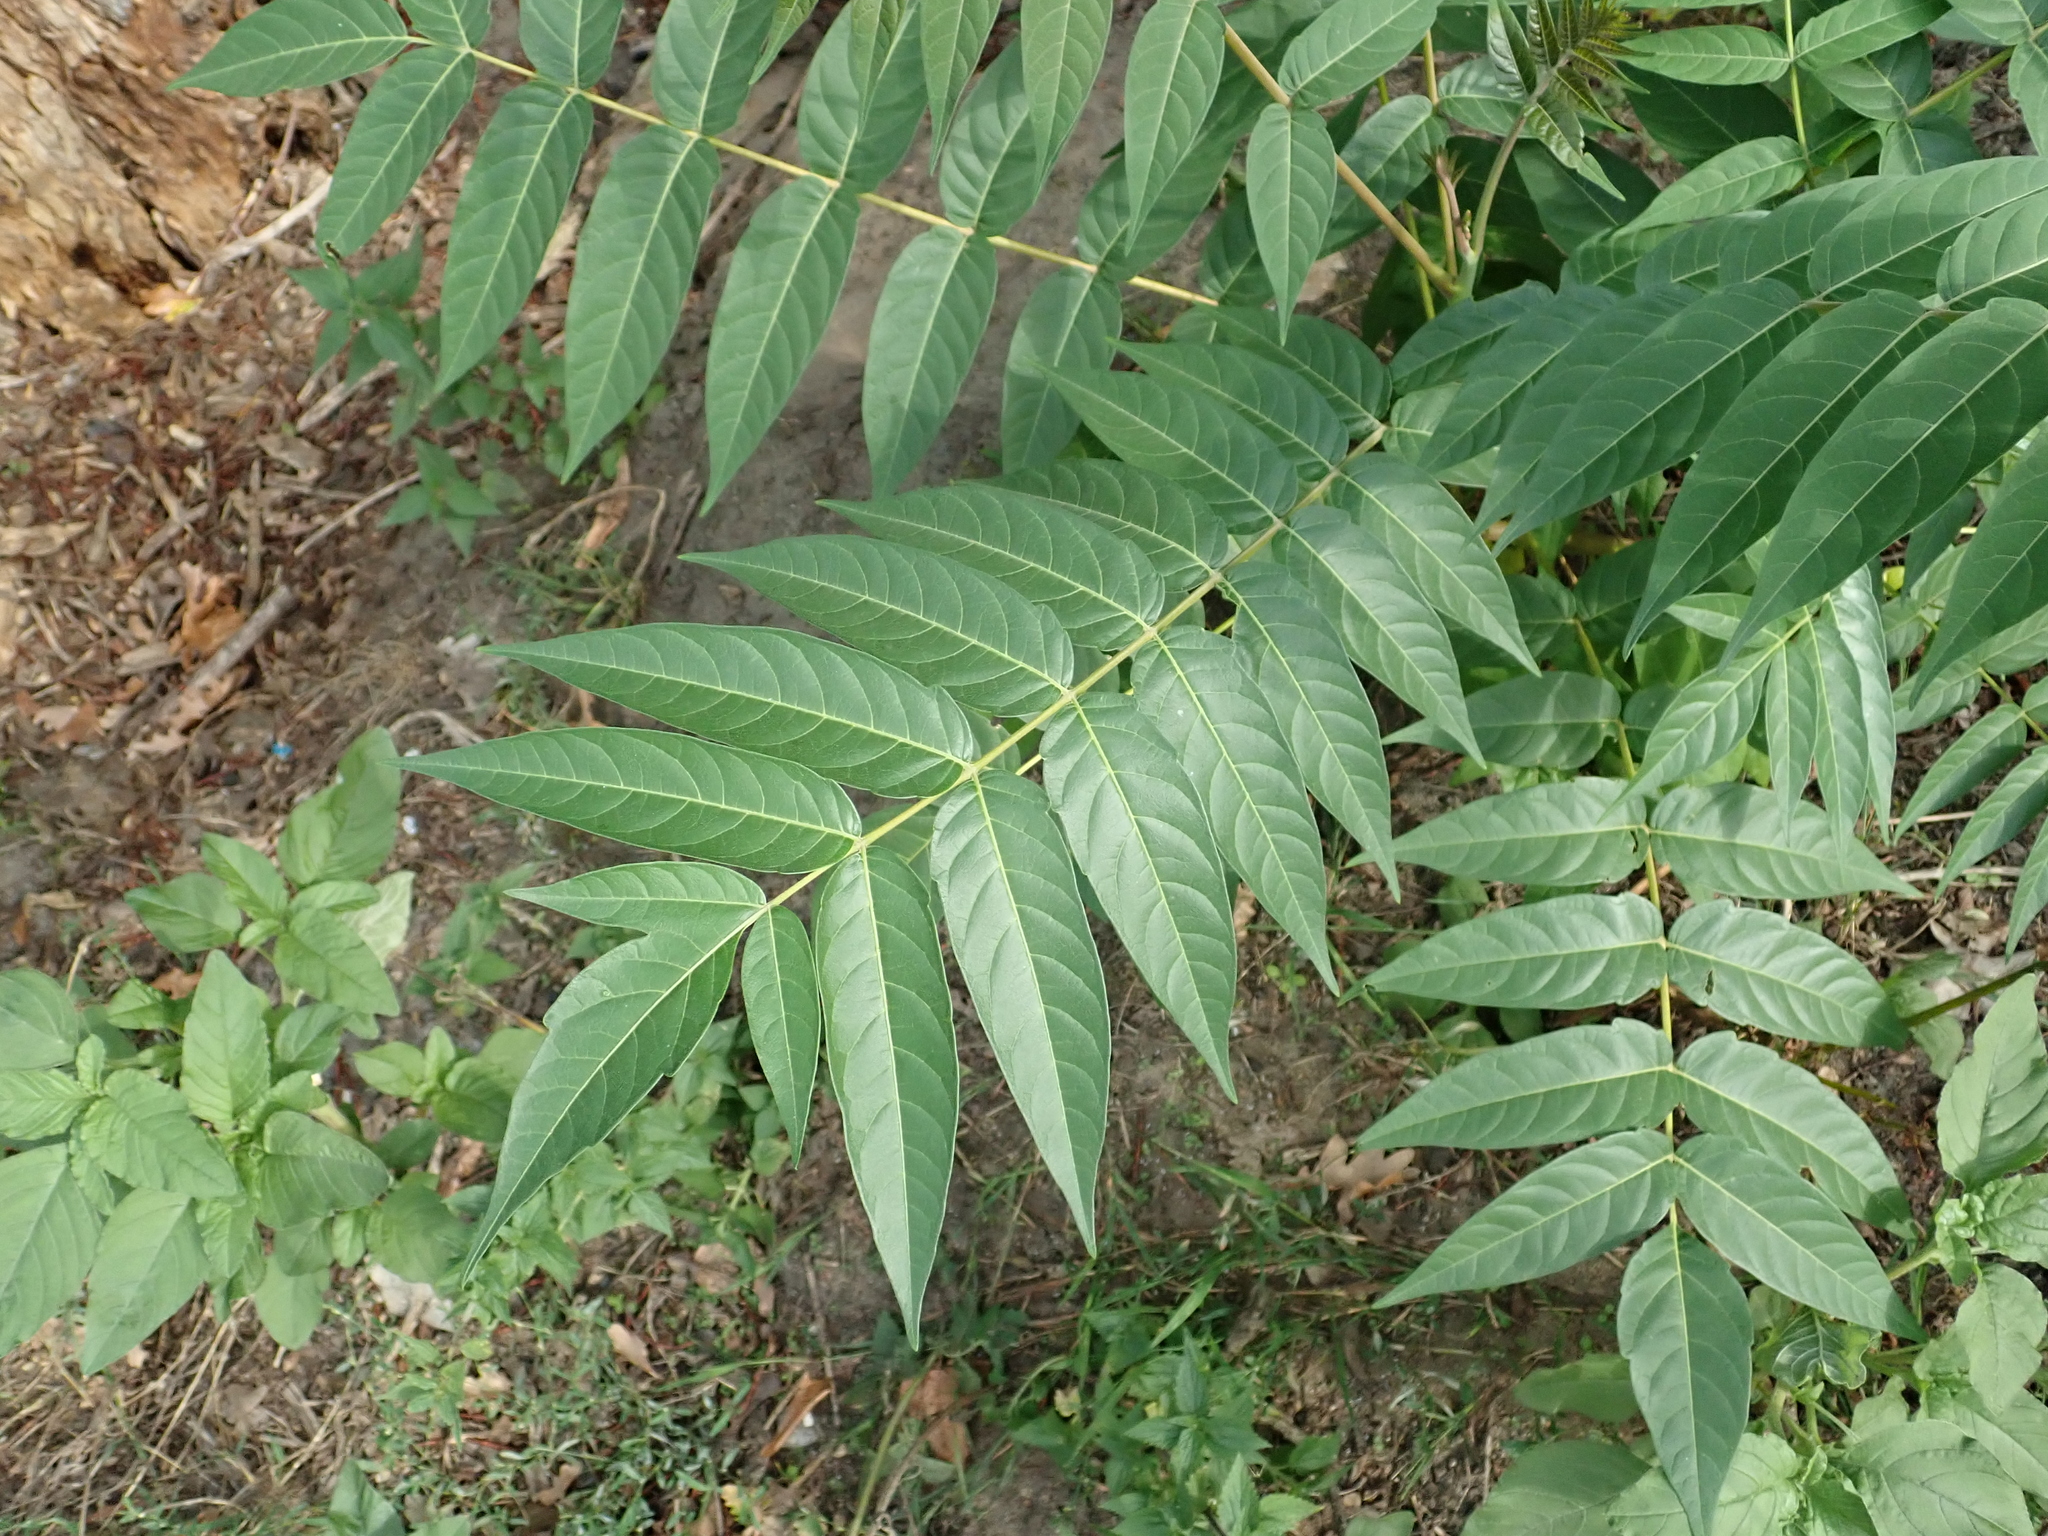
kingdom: Plantae
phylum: Tracheophyta
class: Magnoliopsida
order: Sapindales
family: Simaroubaceae
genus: Ailanthus
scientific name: Ailanthus altissima
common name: Tree-of-heaven
